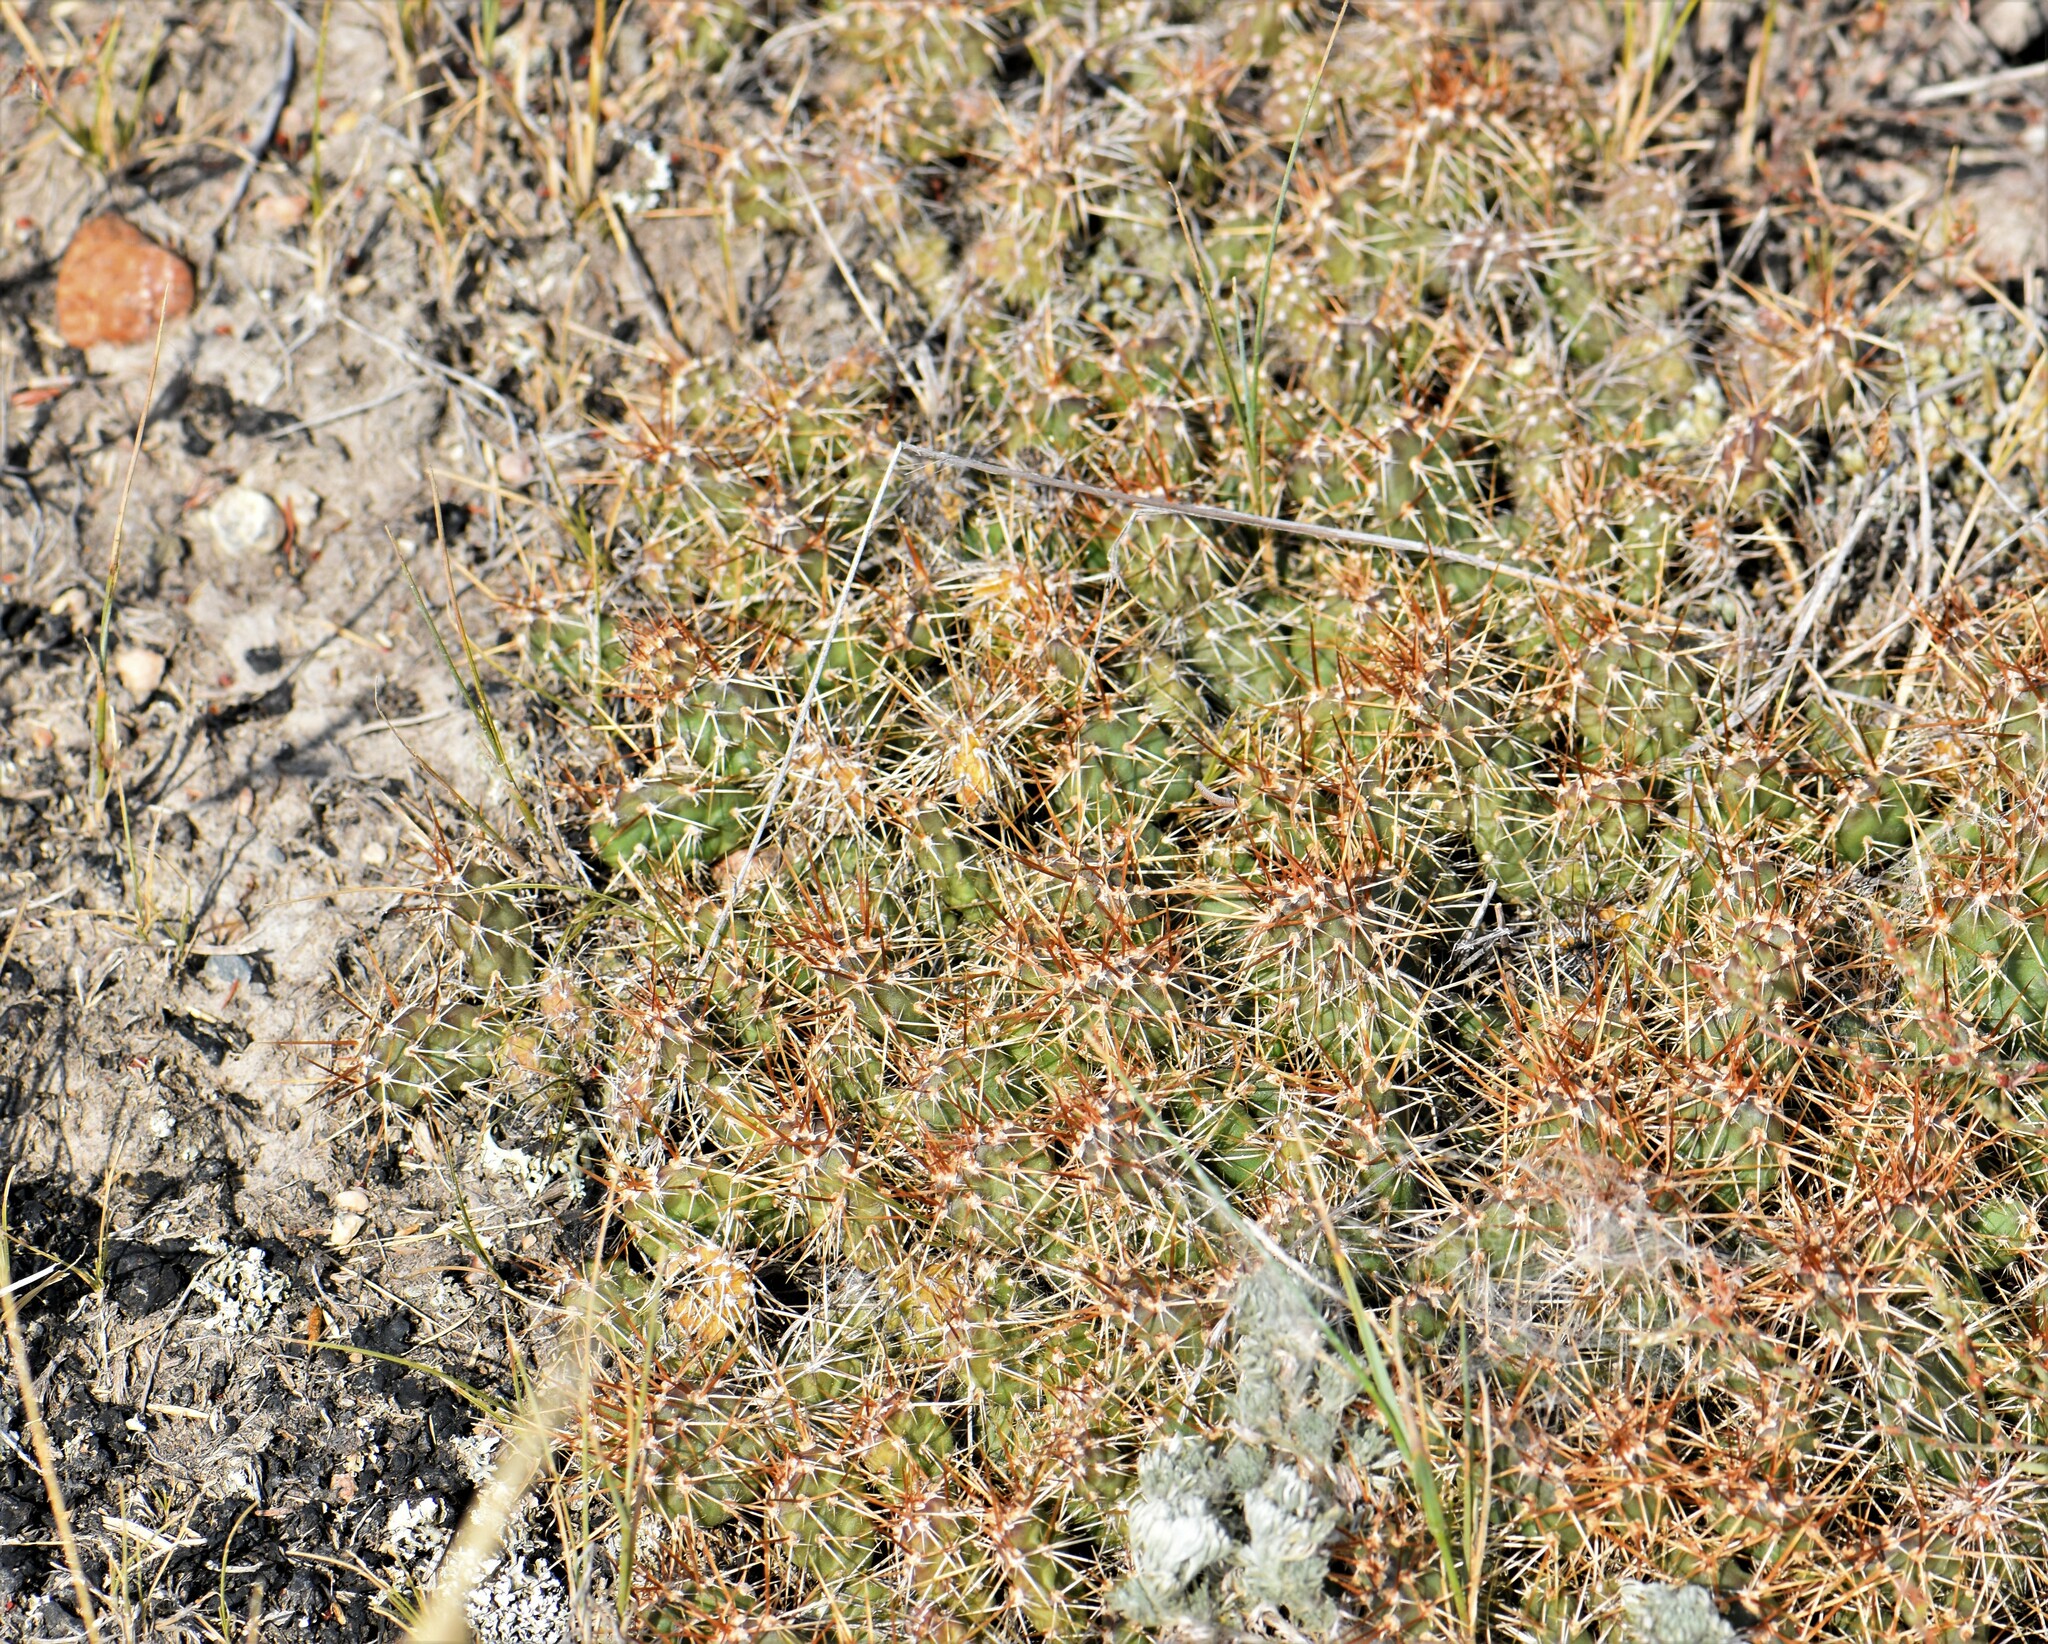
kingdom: Plantae
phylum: Tracheophyta
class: Magnoliopsida
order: Caryophyllales
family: Cactaceae
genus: Opuntia
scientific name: Opuntia fragilis
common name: Brittle cactus
